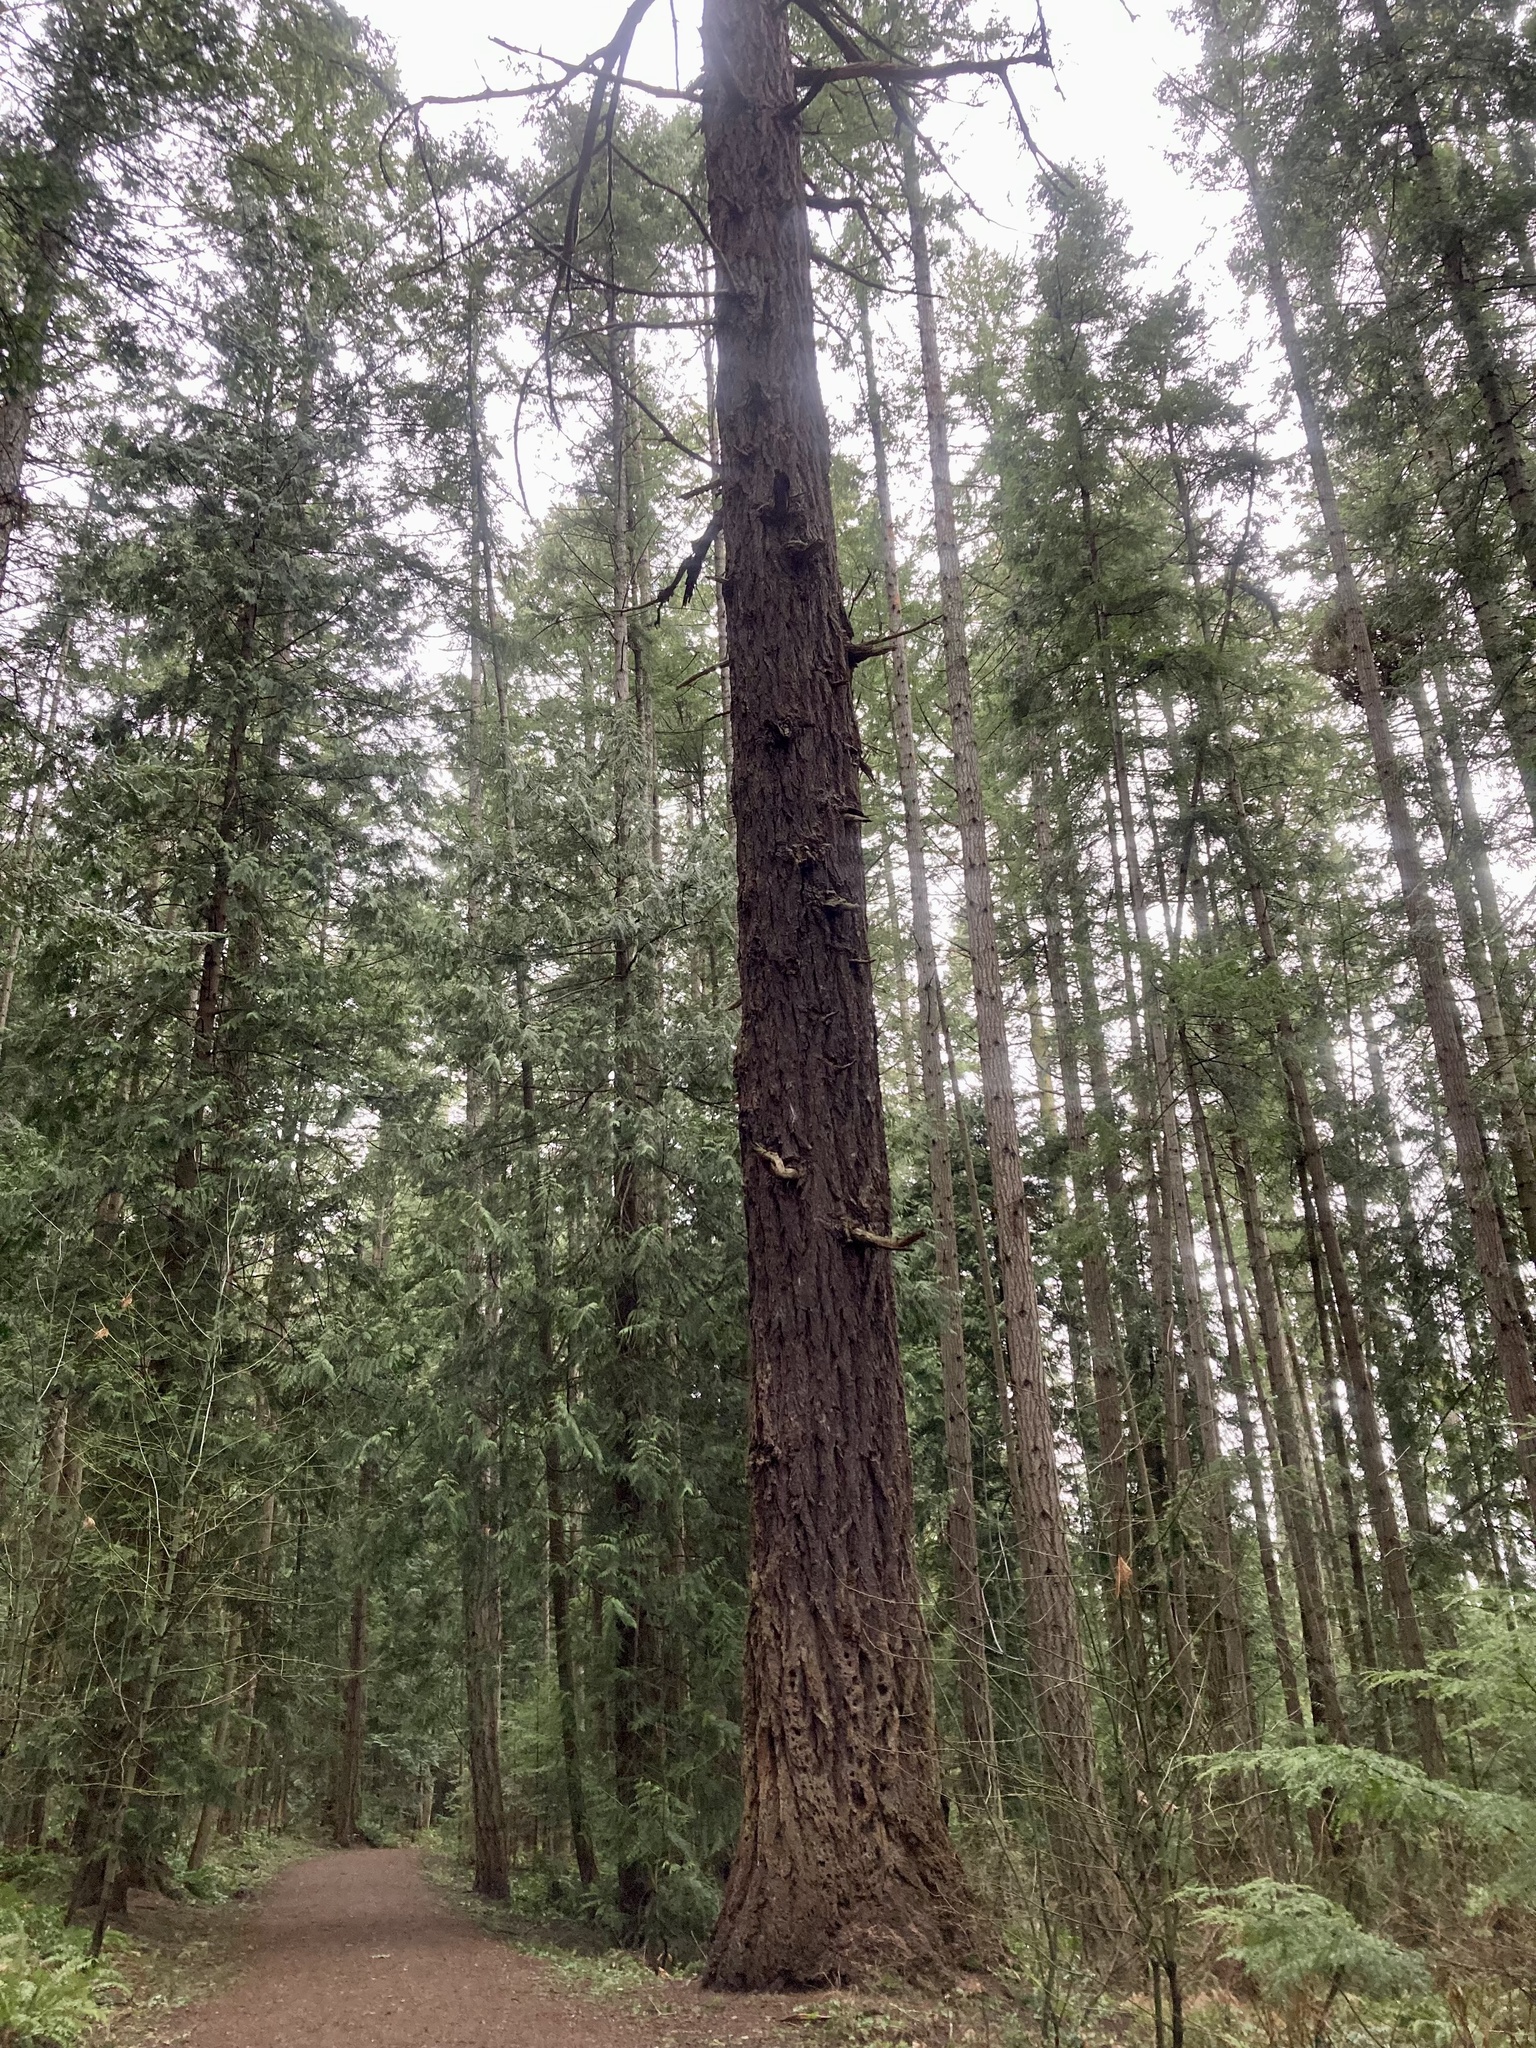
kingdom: Plantae
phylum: Tracheophyta
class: Pinopsida
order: Pinales
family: Pinaceae
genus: Pseudotsuga
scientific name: Pseudotsuga menziesii
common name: Douglas fir
